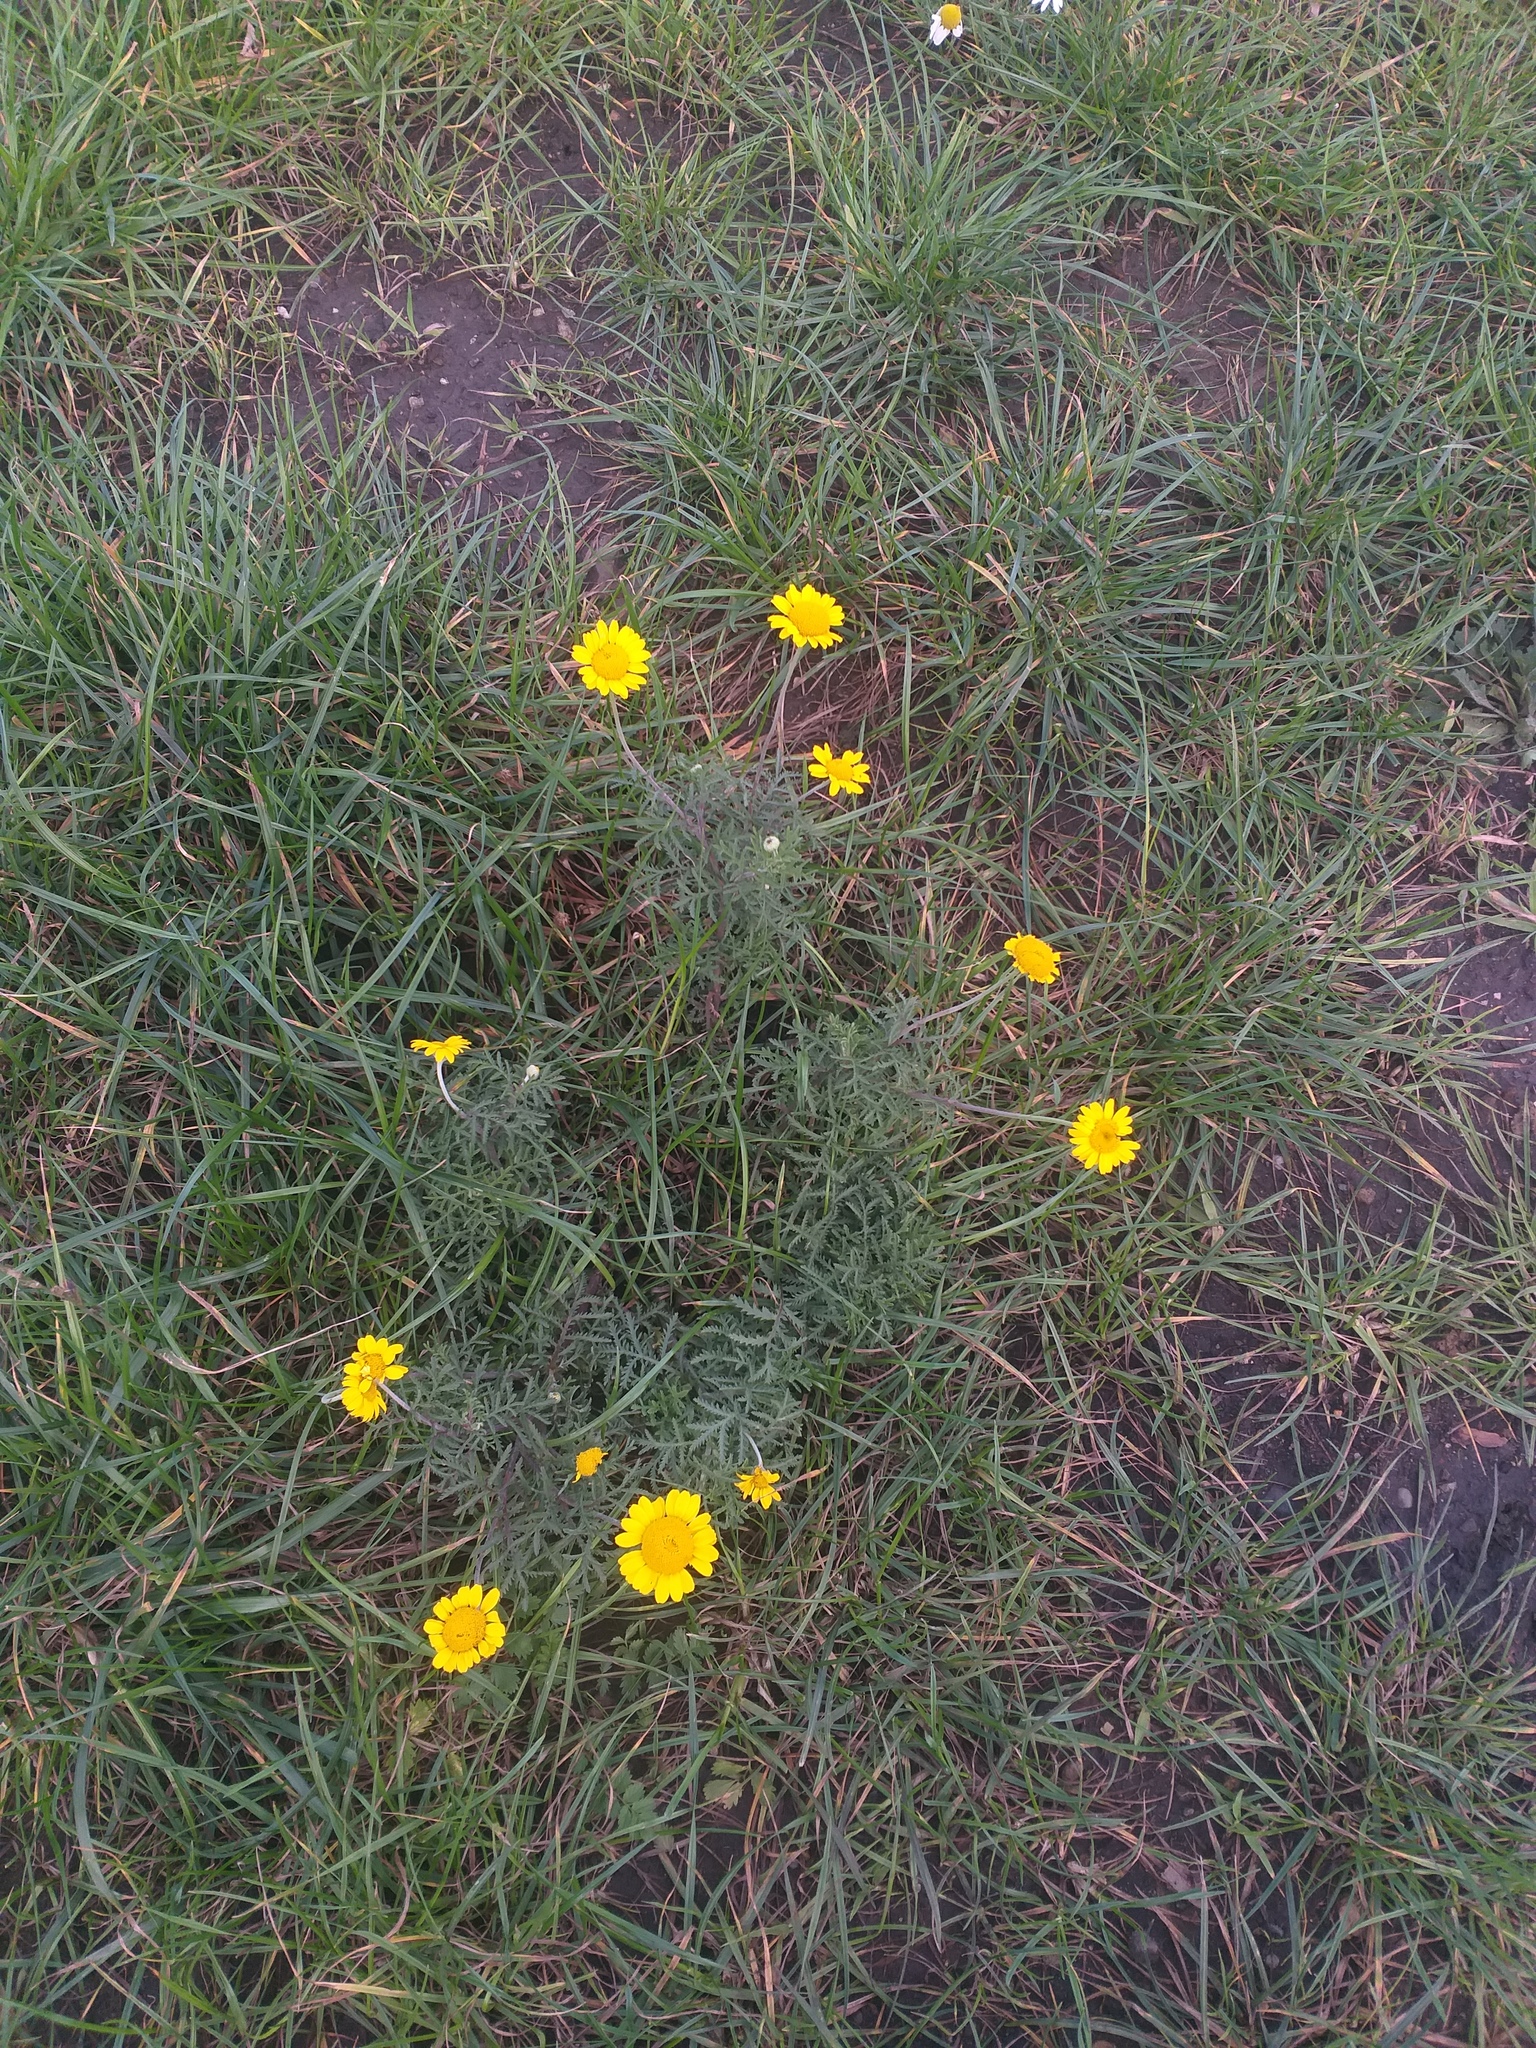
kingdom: Plantae
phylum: Tracheophyta
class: Magnoliopsida
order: Asterales
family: Asteraceae
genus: Cota
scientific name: Cota tinctoria
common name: Golden chamomile
